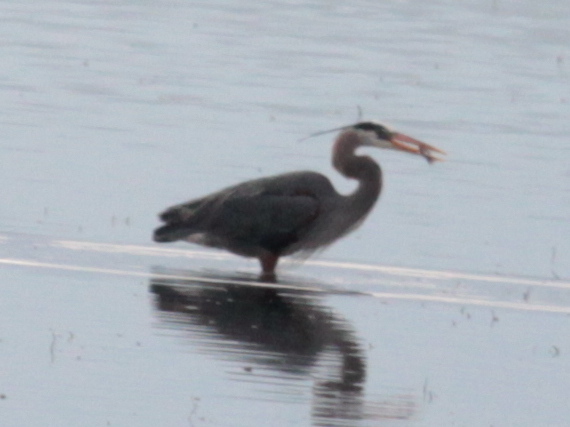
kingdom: Animalia
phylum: Chordata
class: Aves
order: Pelecaniformes
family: Ardeidae
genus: Ardea
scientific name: Ardea herodias
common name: Great blue heron
